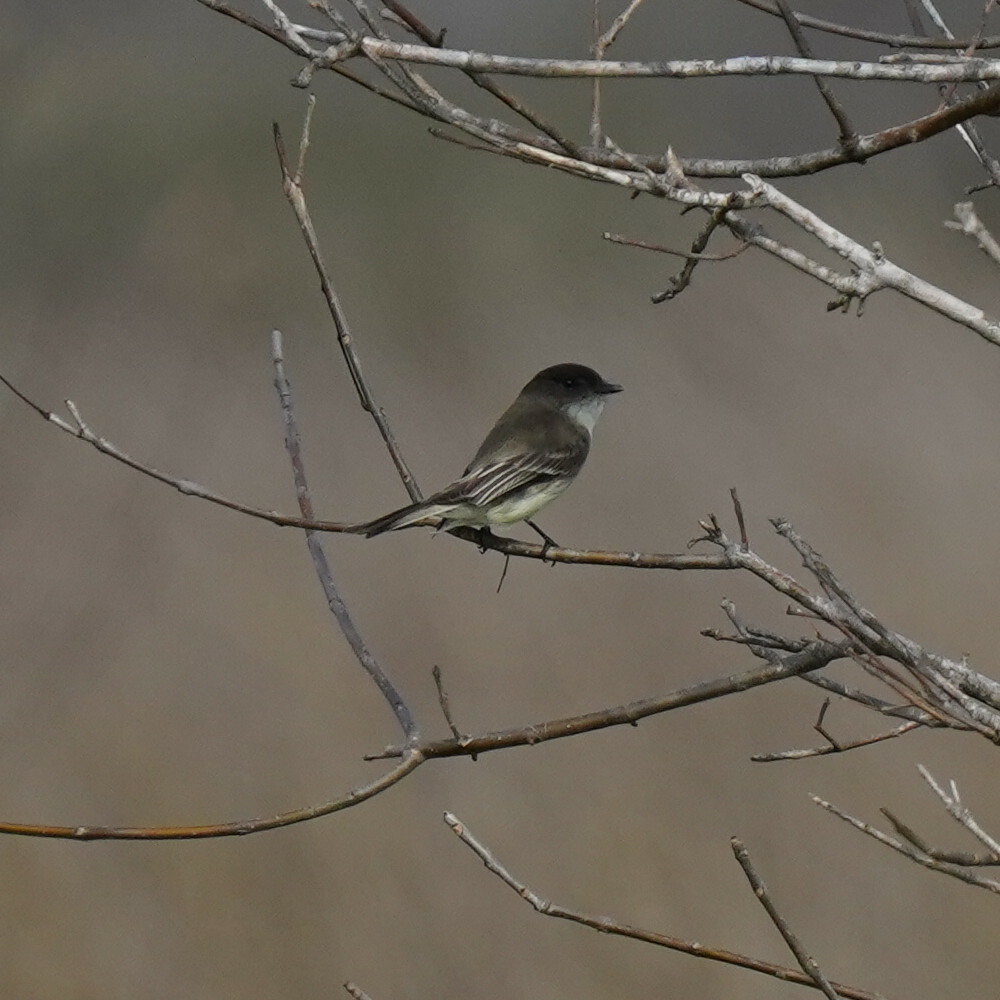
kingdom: Animalia
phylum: Chordata
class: Aves
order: Passeriformes
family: Tyrannidae
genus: Sayornis
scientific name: Sayornis phoebe
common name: Eastern phoebe
